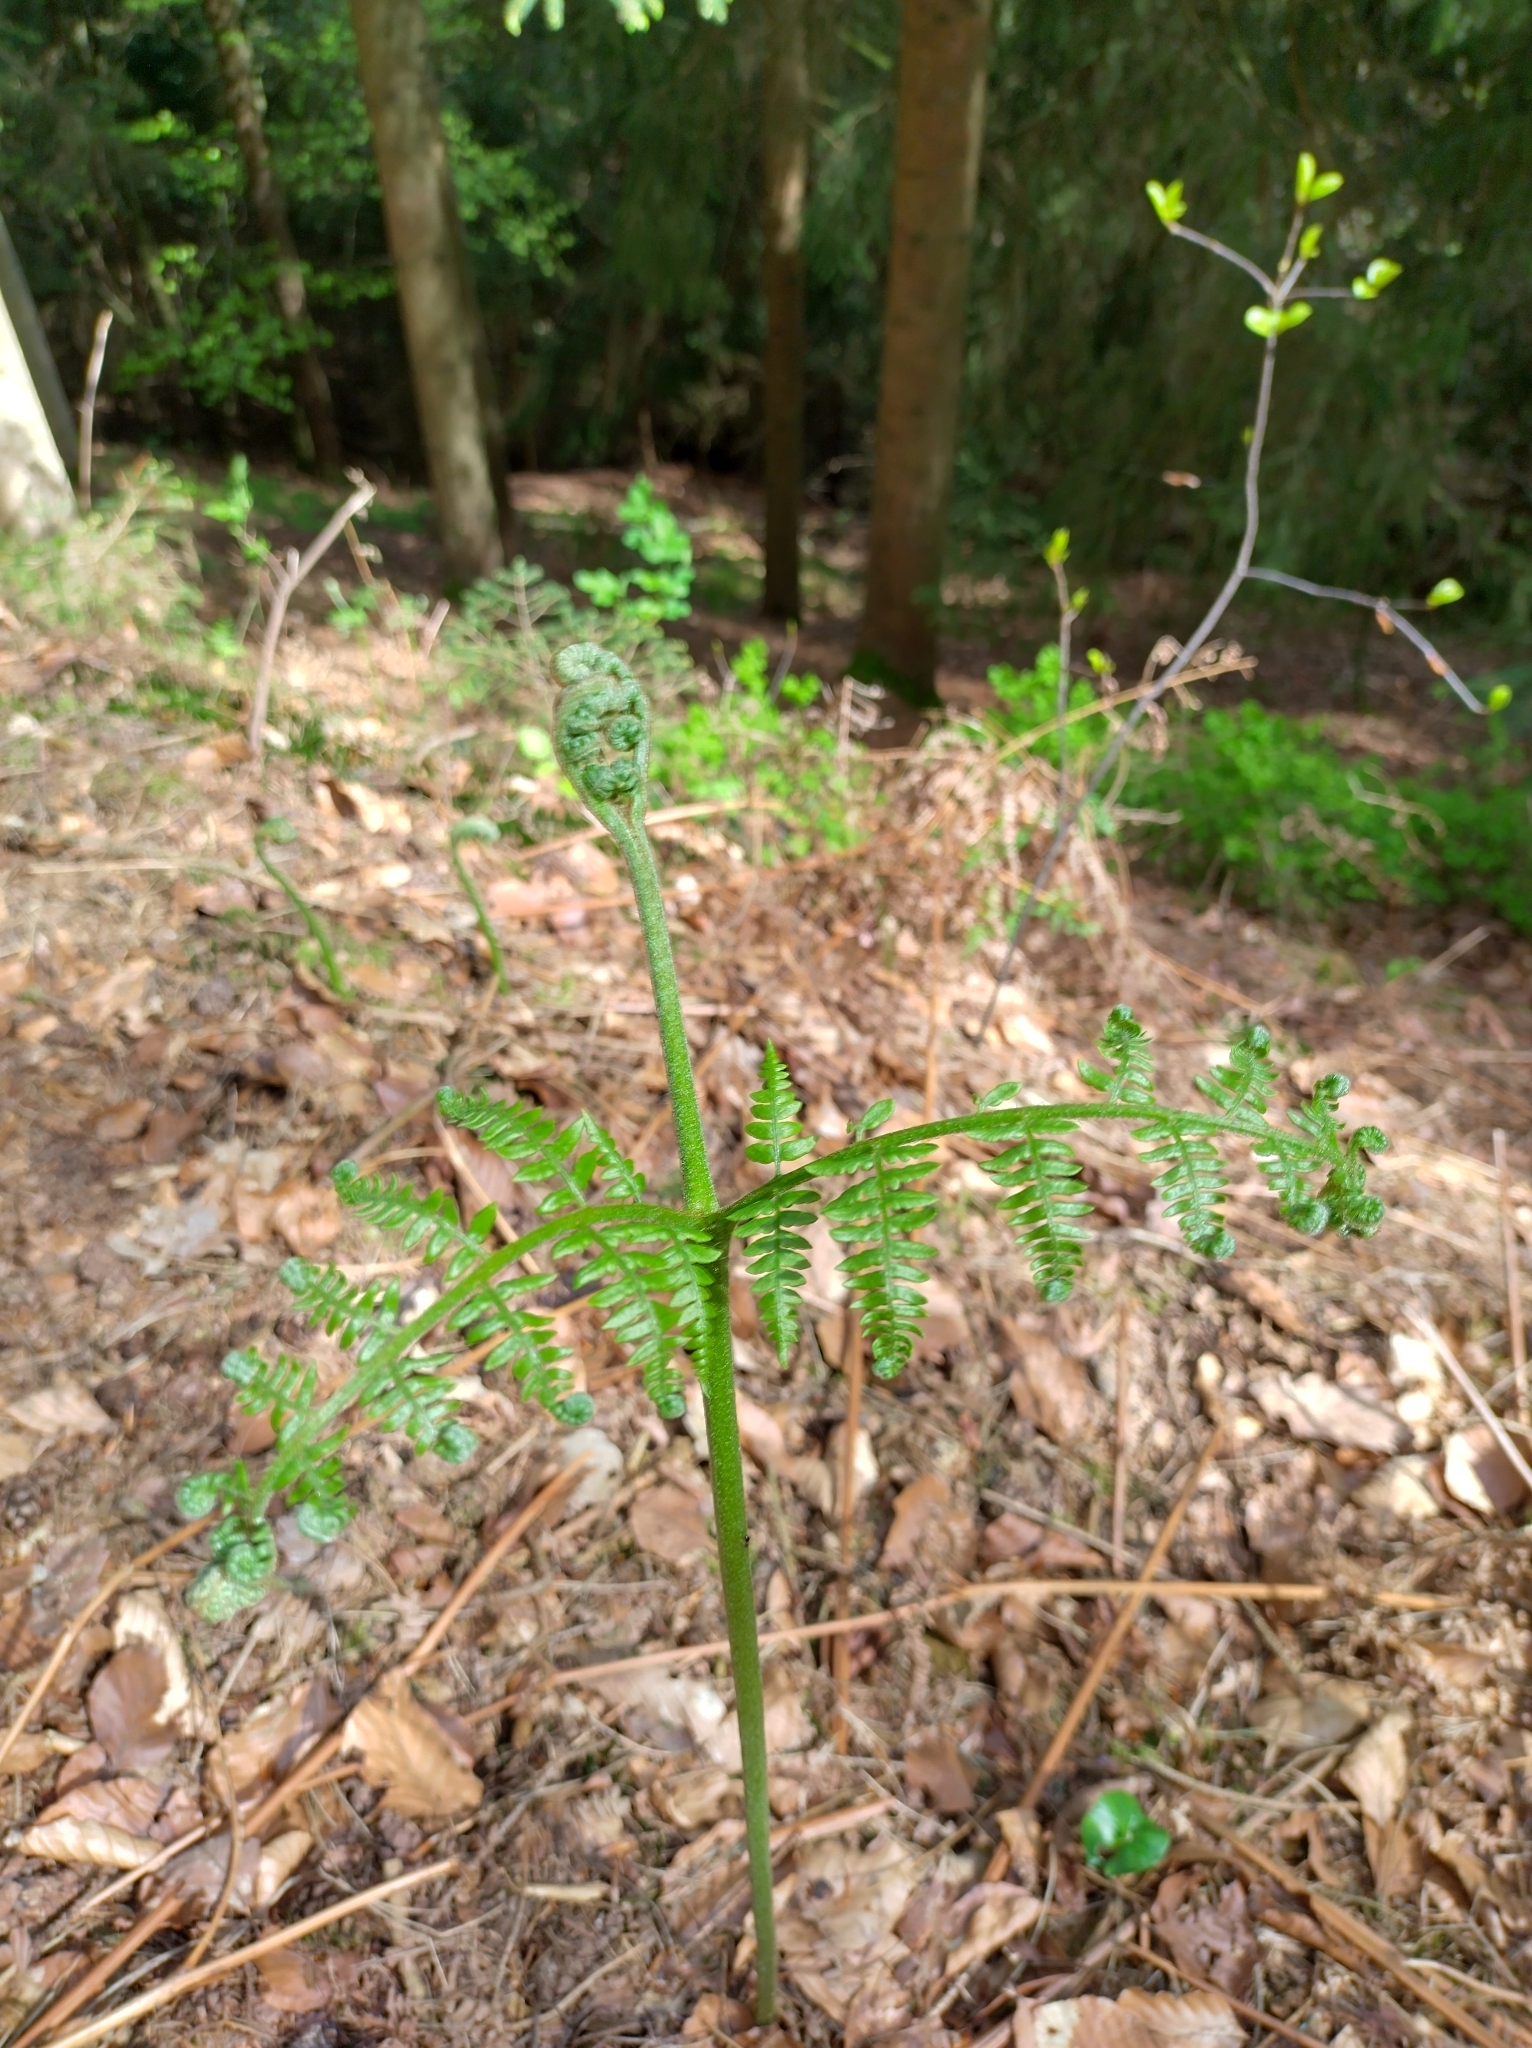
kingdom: Plantae
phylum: Tracheophyta
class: Polypodiopsida
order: Polypodiales
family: Dennstaedtiaceae
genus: Pteridium
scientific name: Pteridium aquilinum
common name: Bracken
